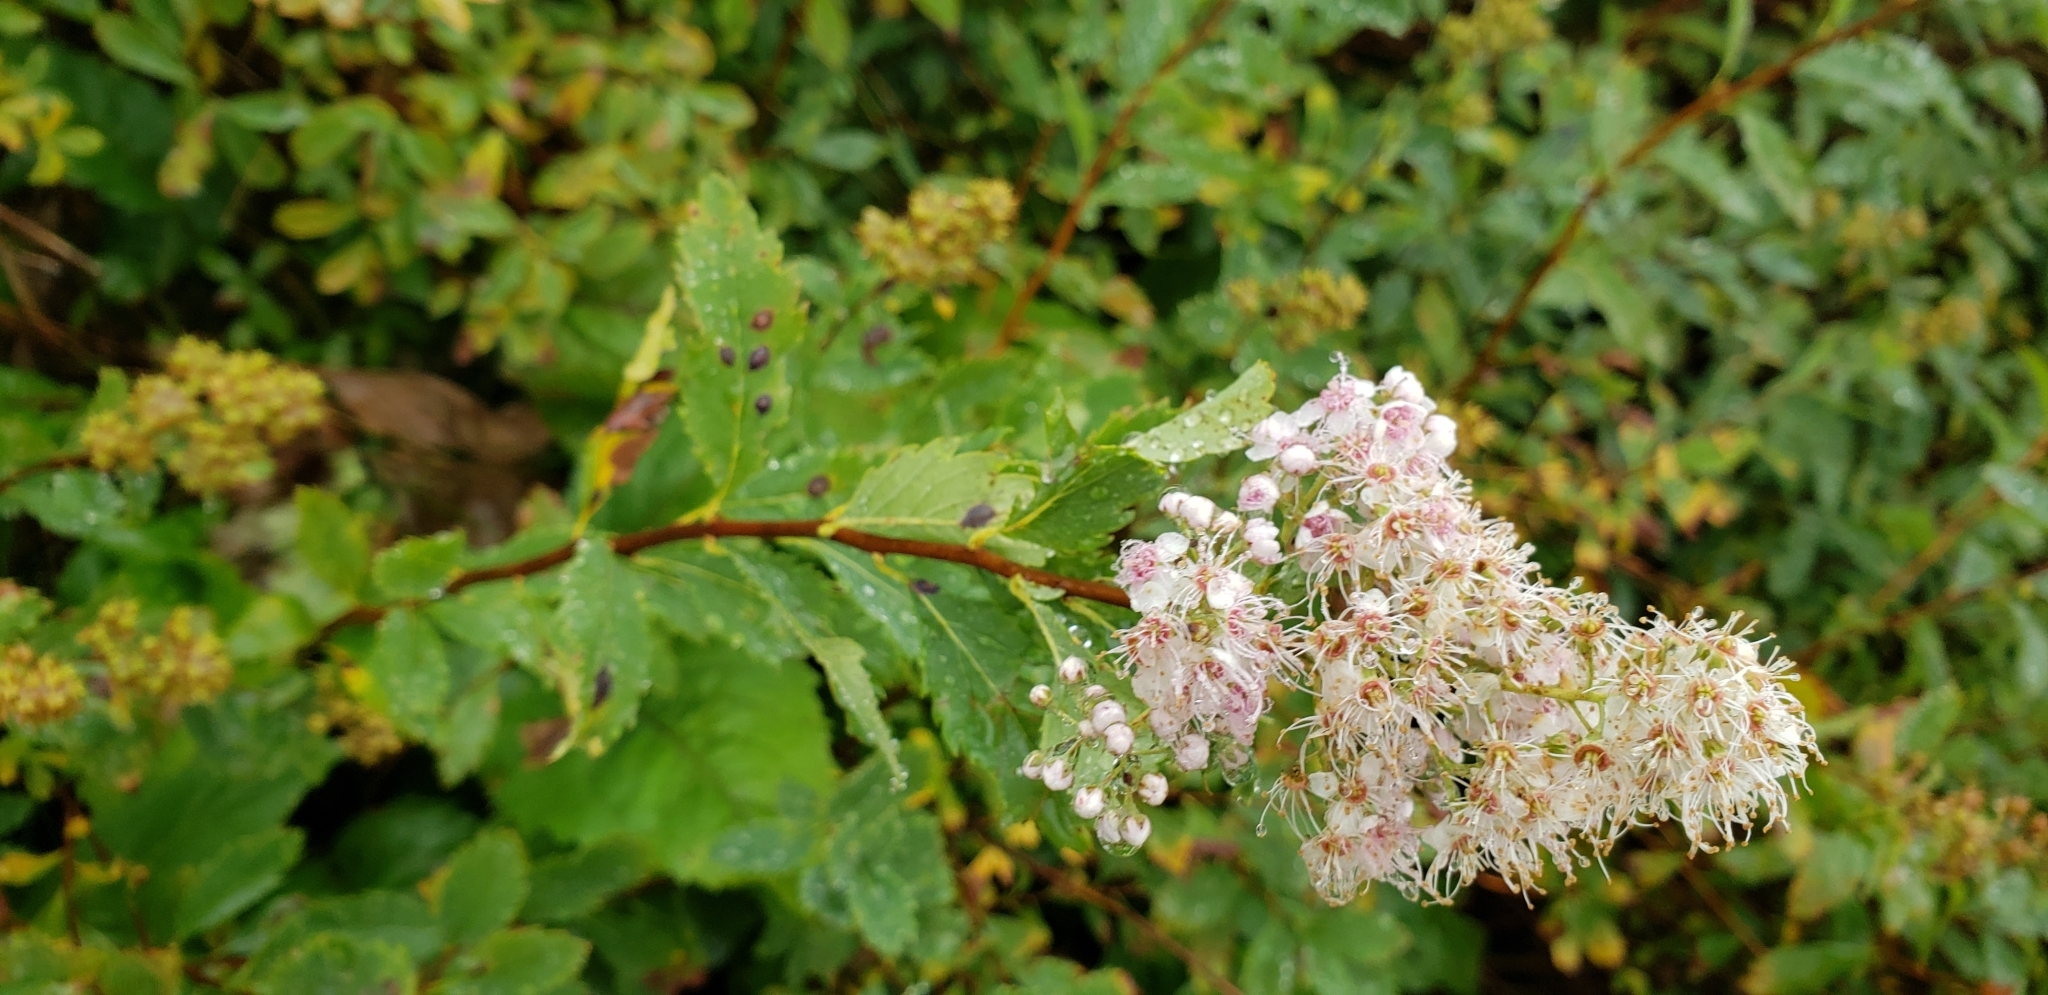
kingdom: Plantae
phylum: Tracheophyta
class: Magnoliopsida
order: Rosales
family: Rosaceae
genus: Spiraea
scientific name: Spiraea alba
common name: Pale bridewort
